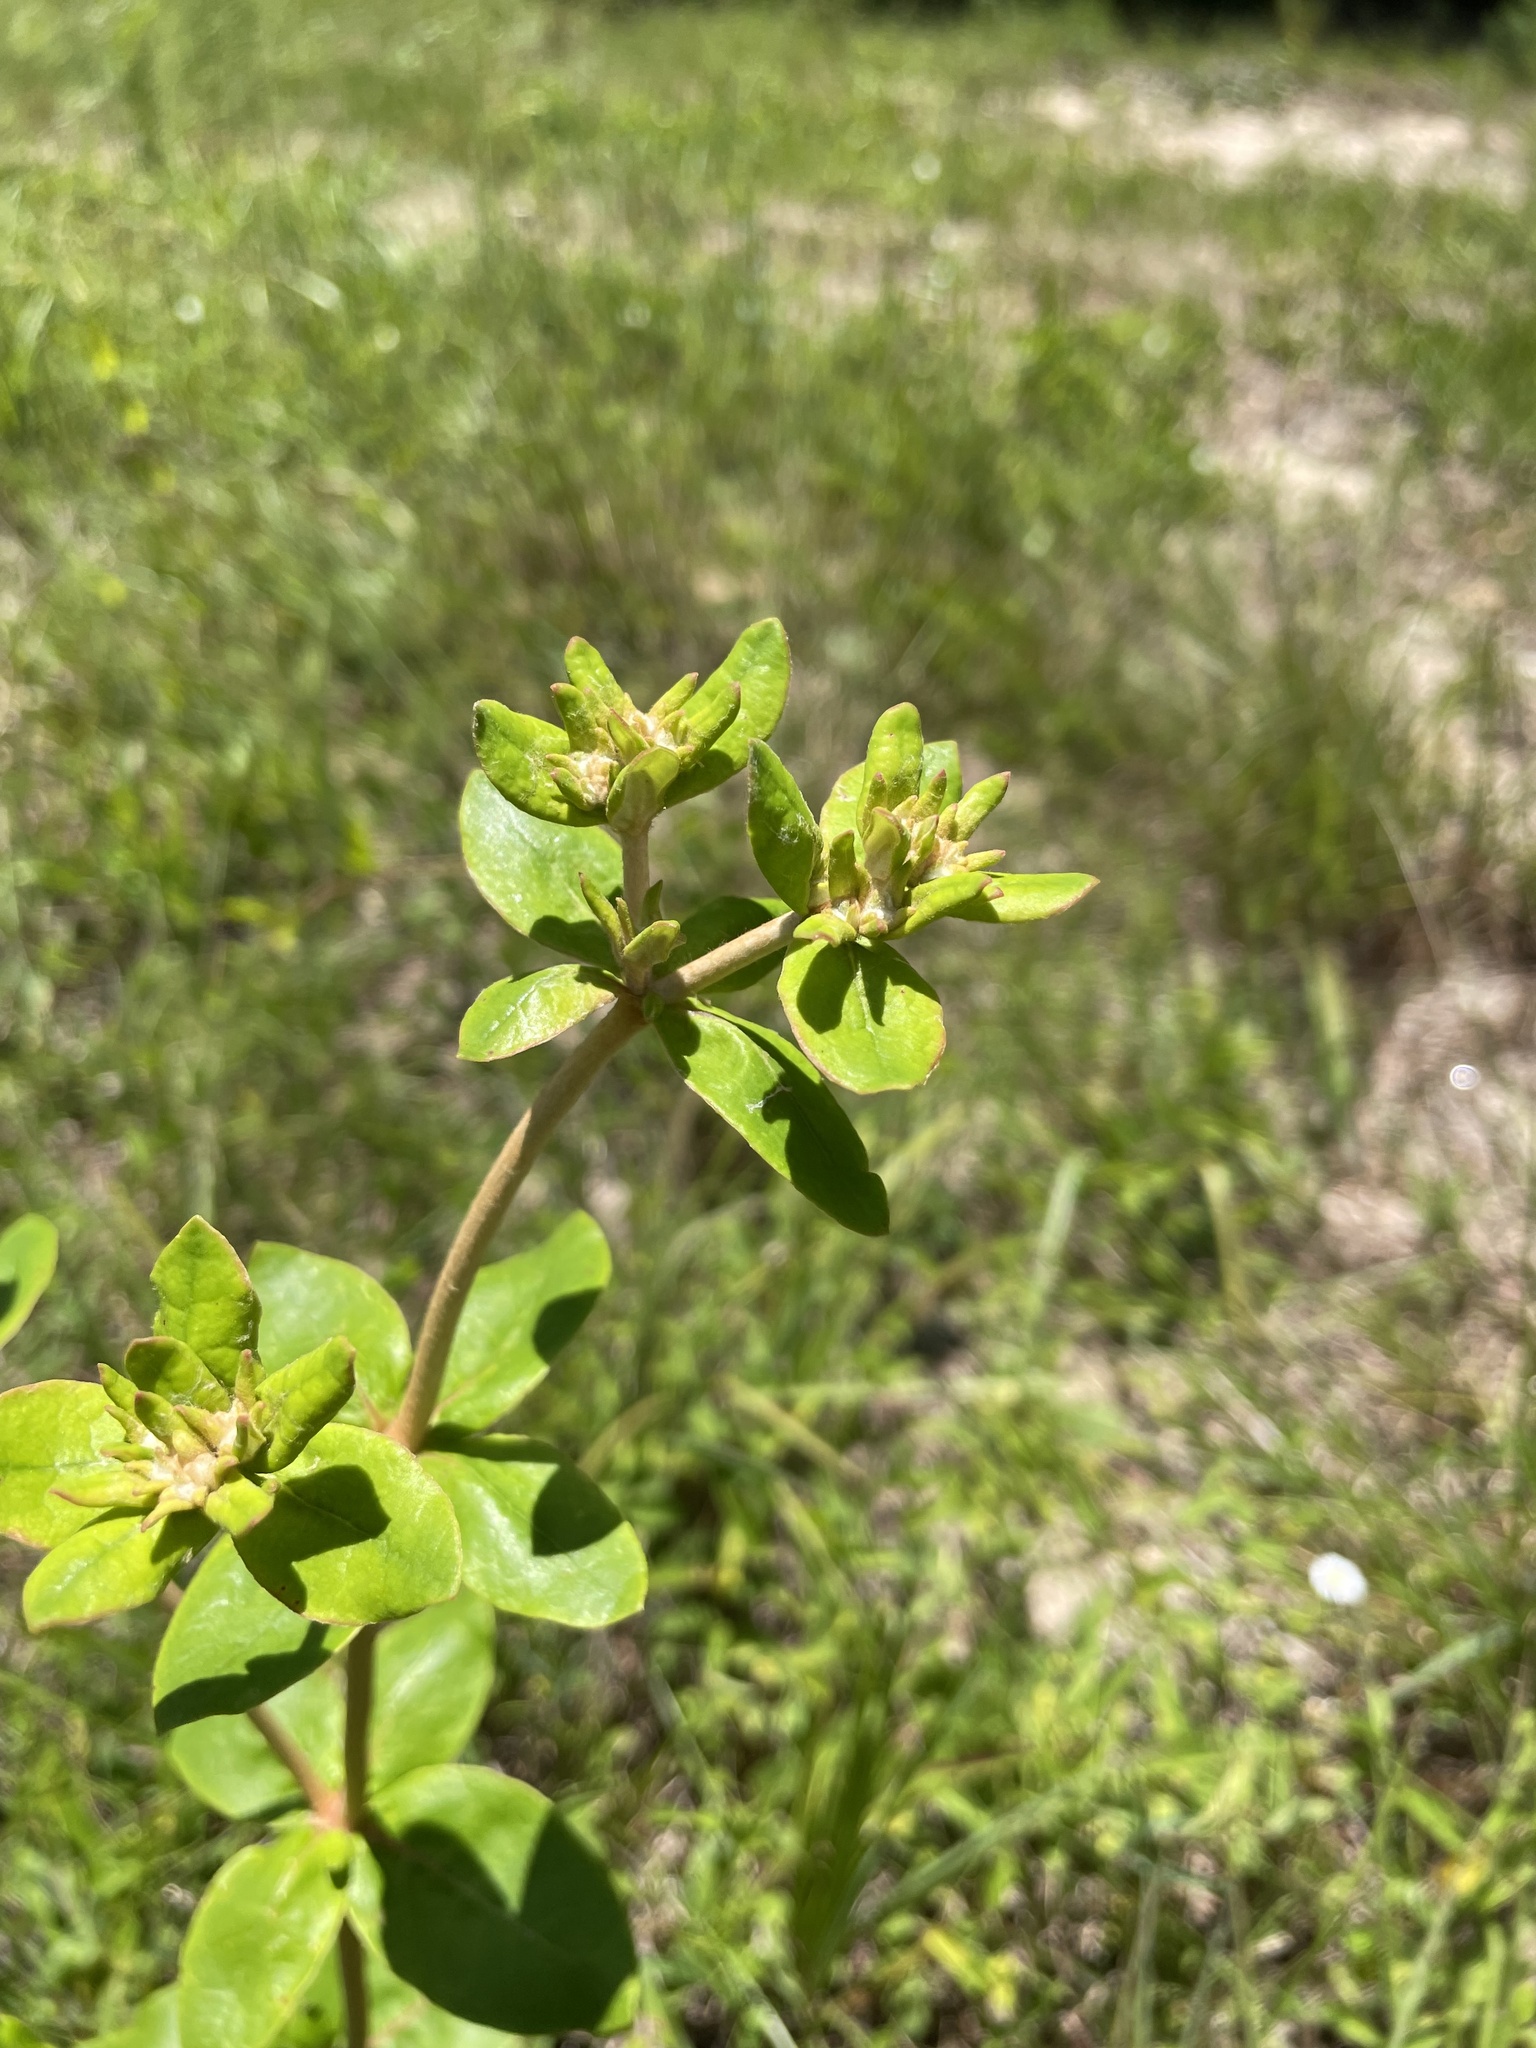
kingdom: Plantae
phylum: Tracheophyta
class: Magnoliopsida
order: Caryophyllales
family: Polygonaceae
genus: Eriogonum
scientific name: Eriogonum tomentosum
